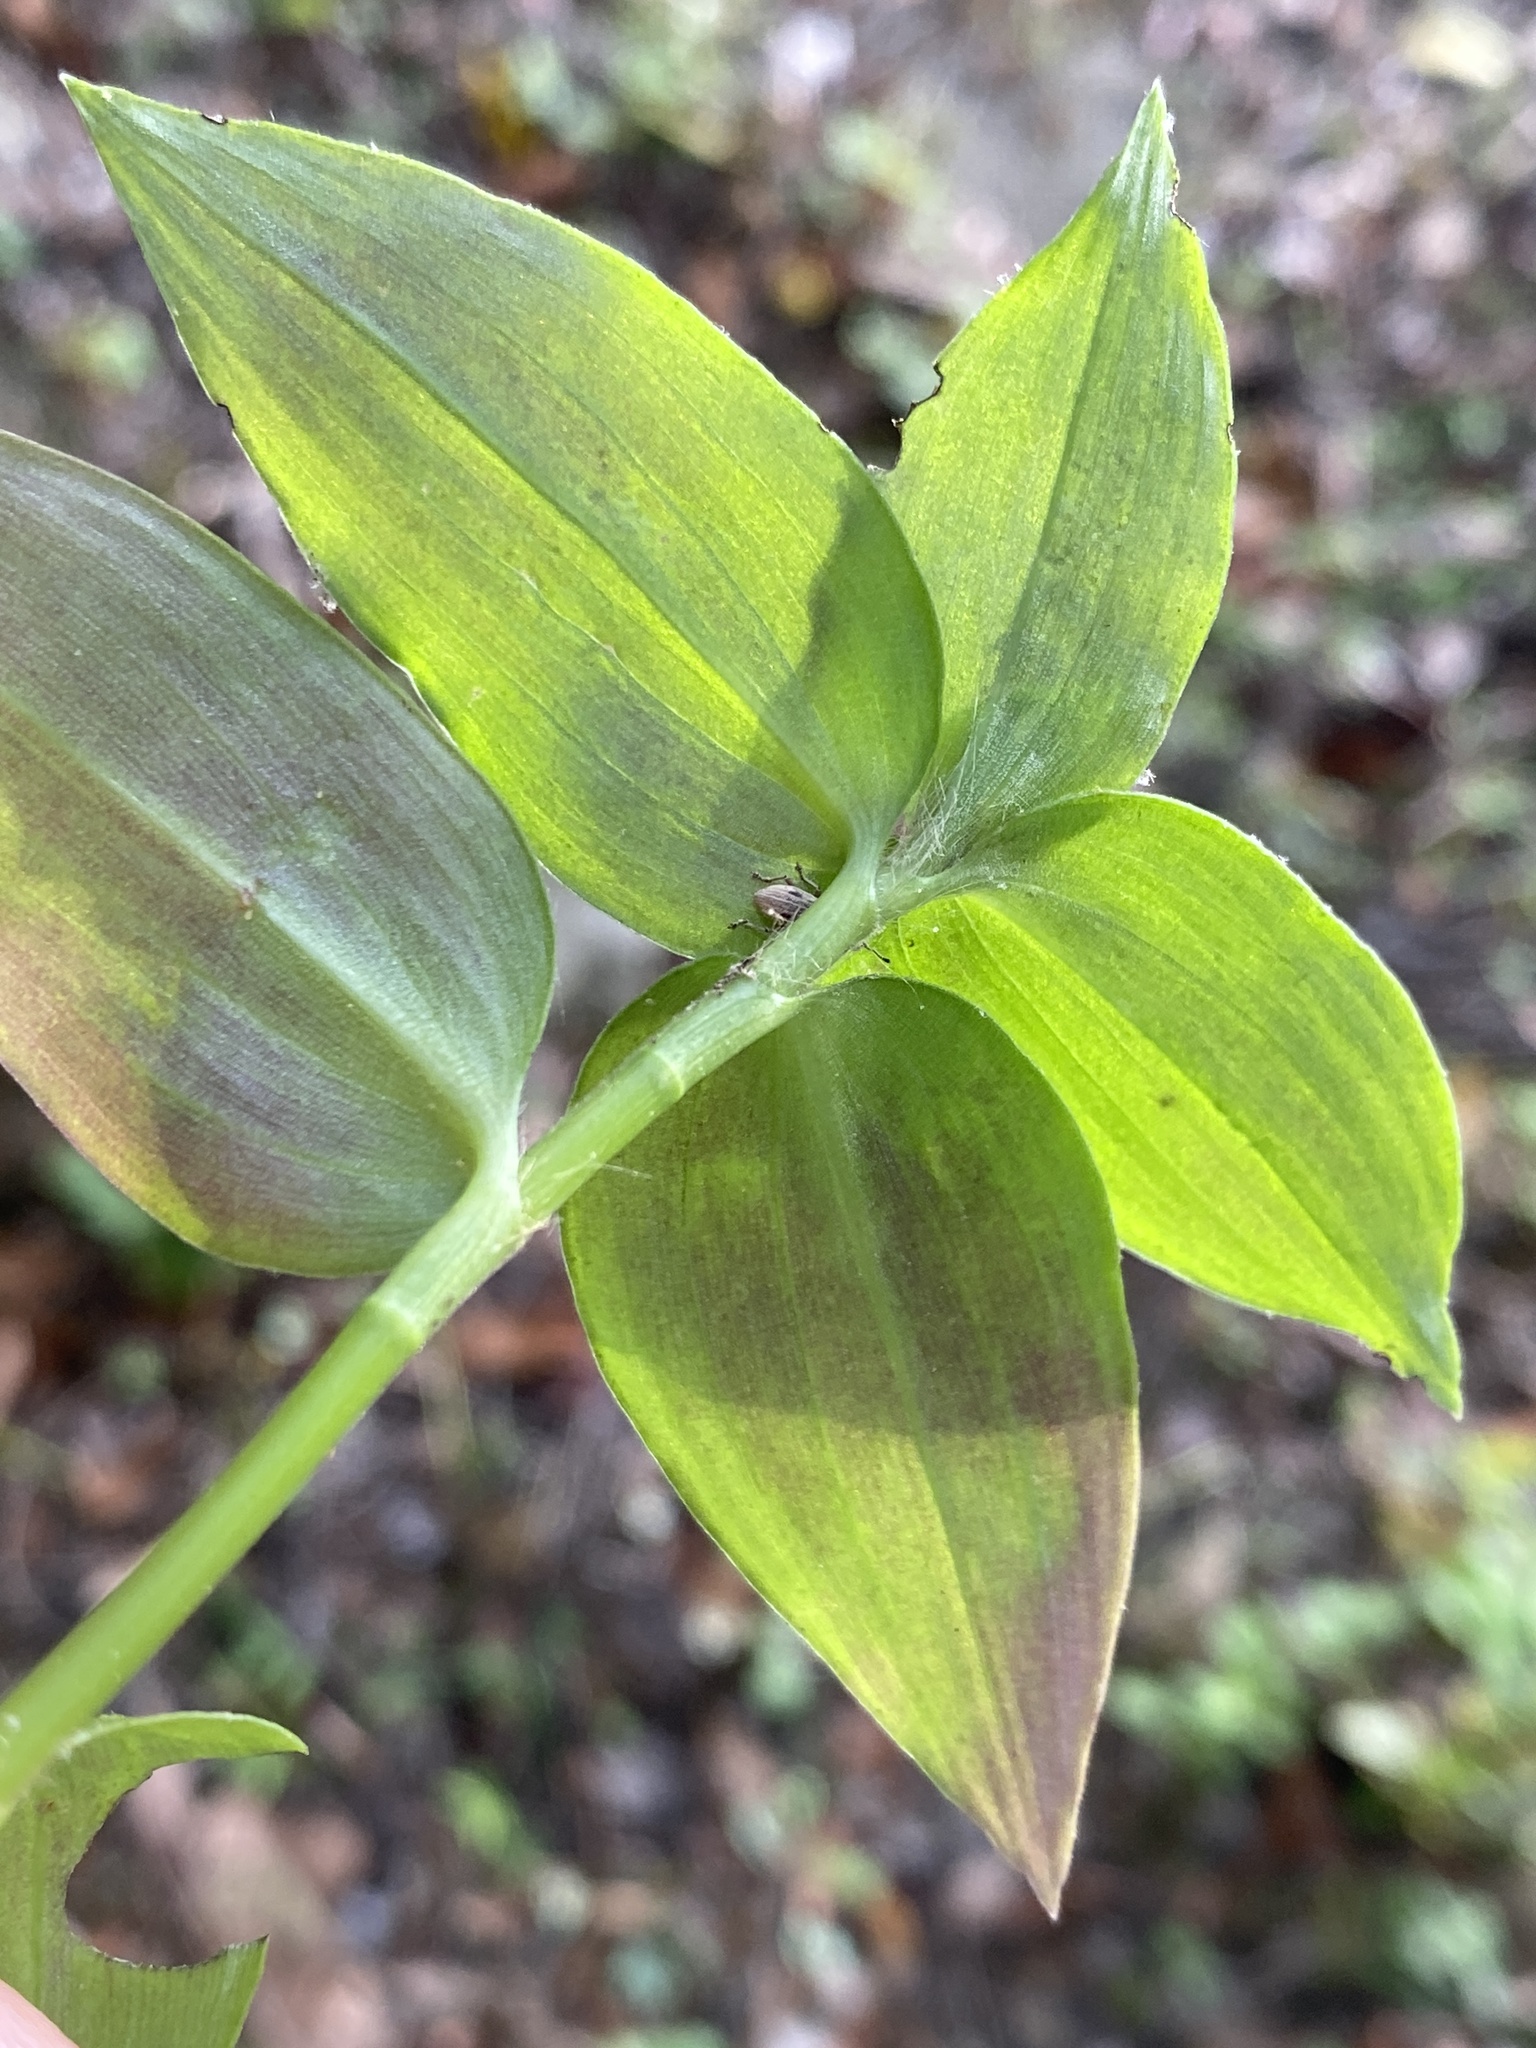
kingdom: Plantae
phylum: Tracheophyta
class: Liliopsida
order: Commelinales
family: Commelinaceae
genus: Tradescantia
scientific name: Tradescantia fluminensis
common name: Wandering-jew
